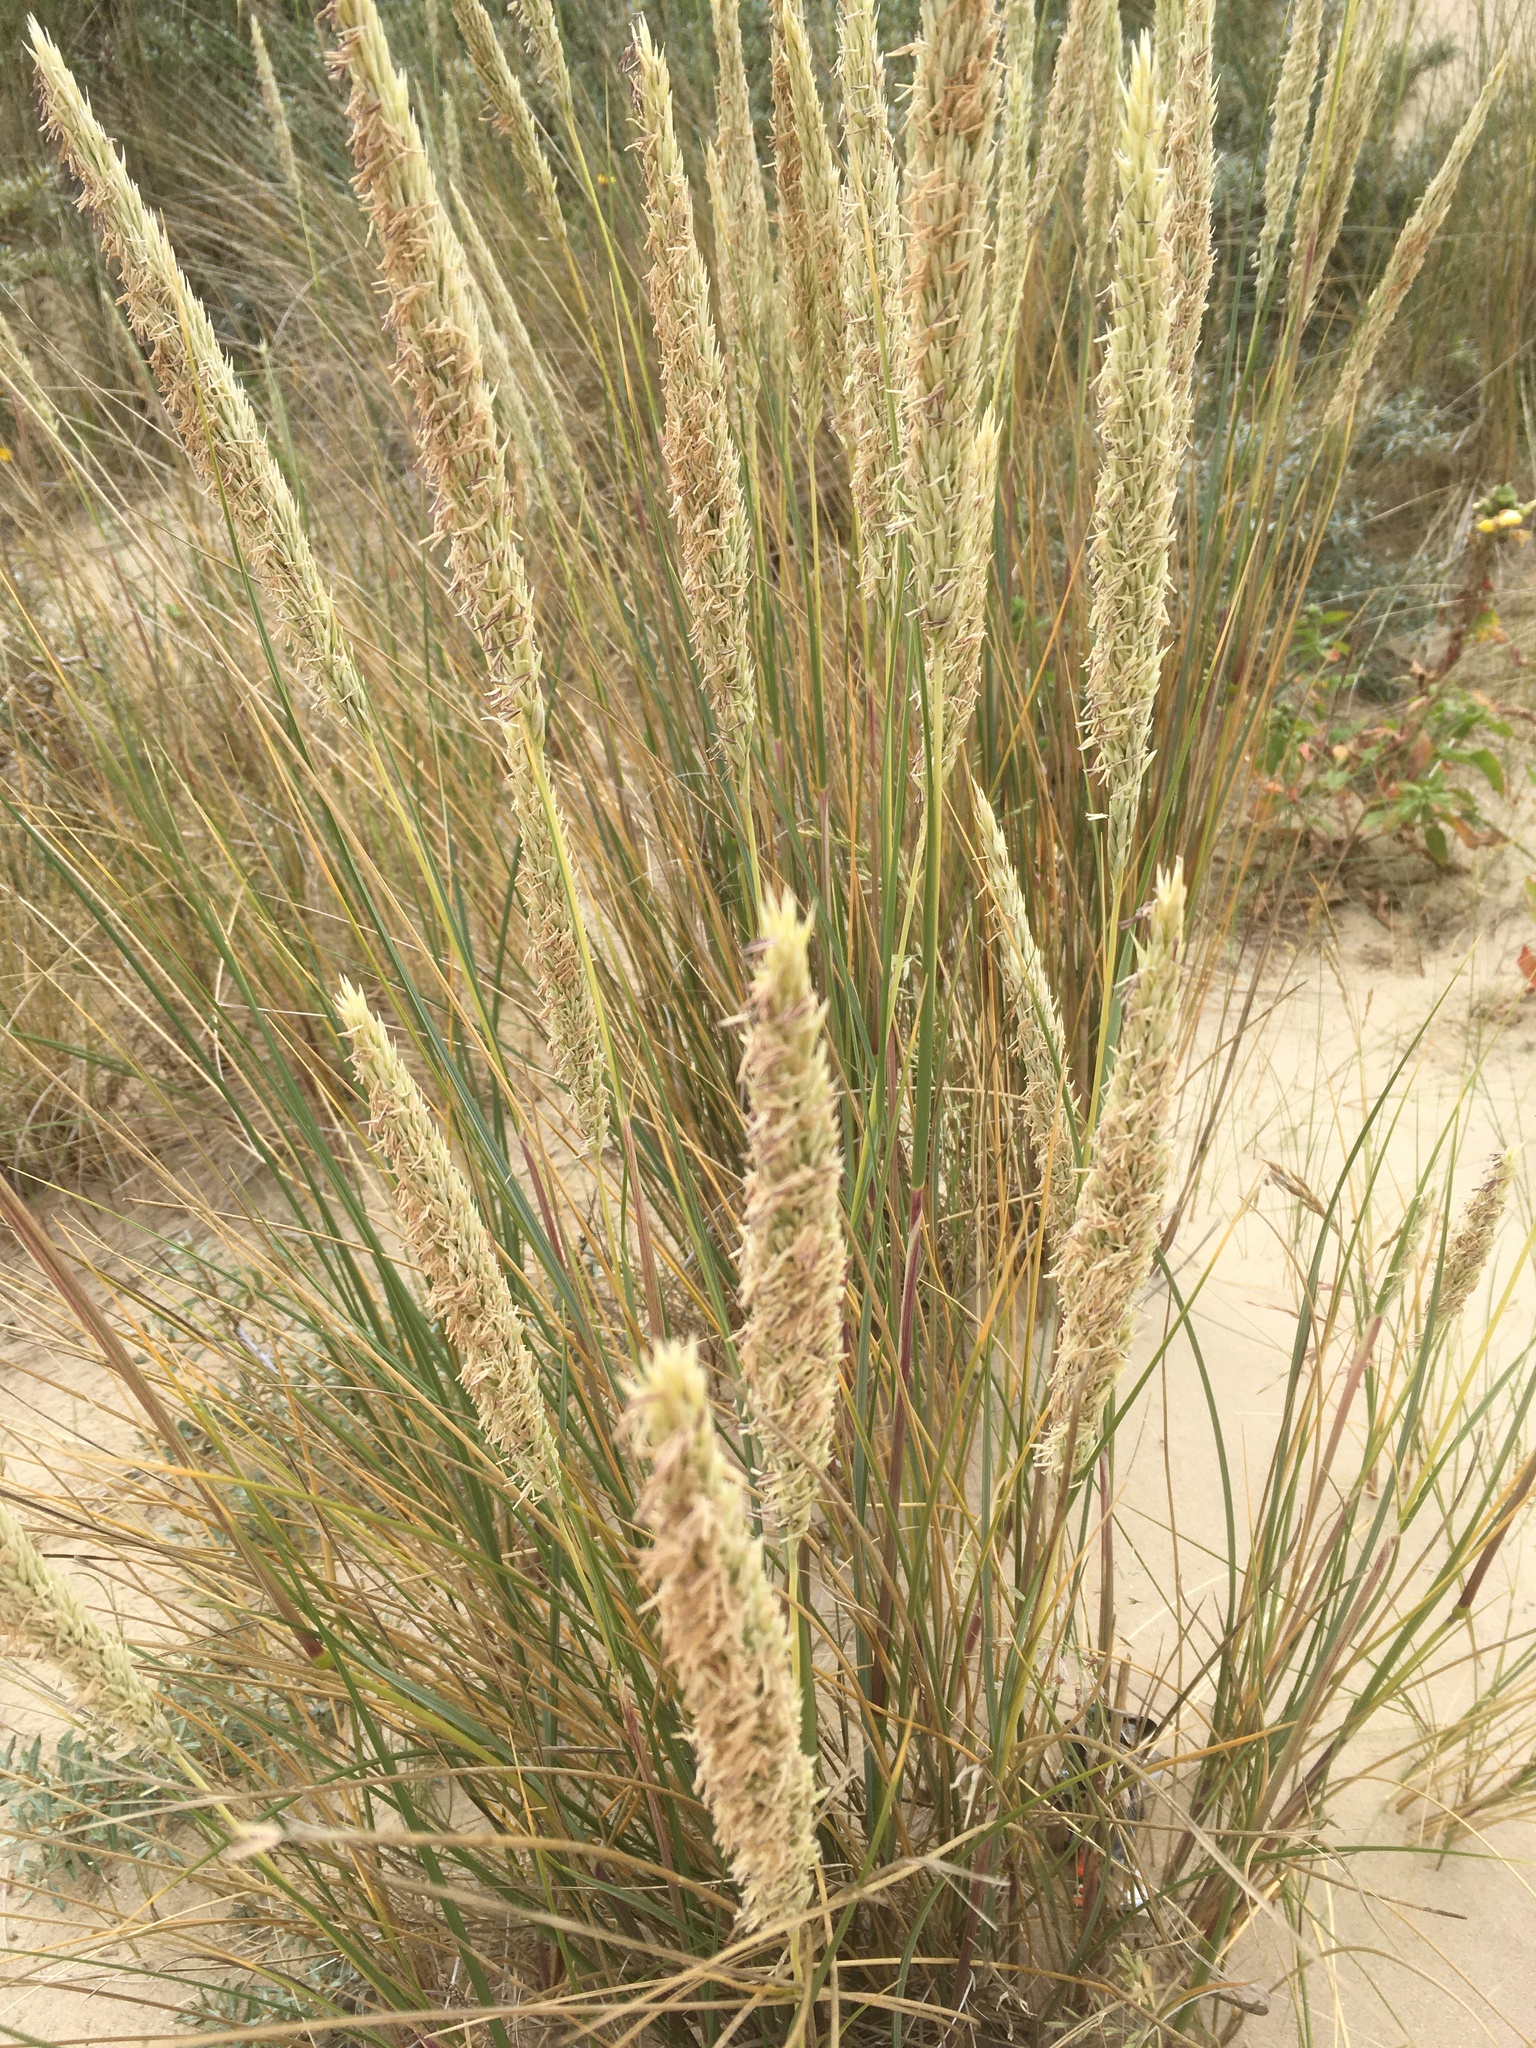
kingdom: Plantae
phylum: Tracheophyta
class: Liliopsida
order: Poales
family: Poaceae
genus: Calamagrostis
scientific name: Calamagrostis arenaria
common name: European beachgrass
